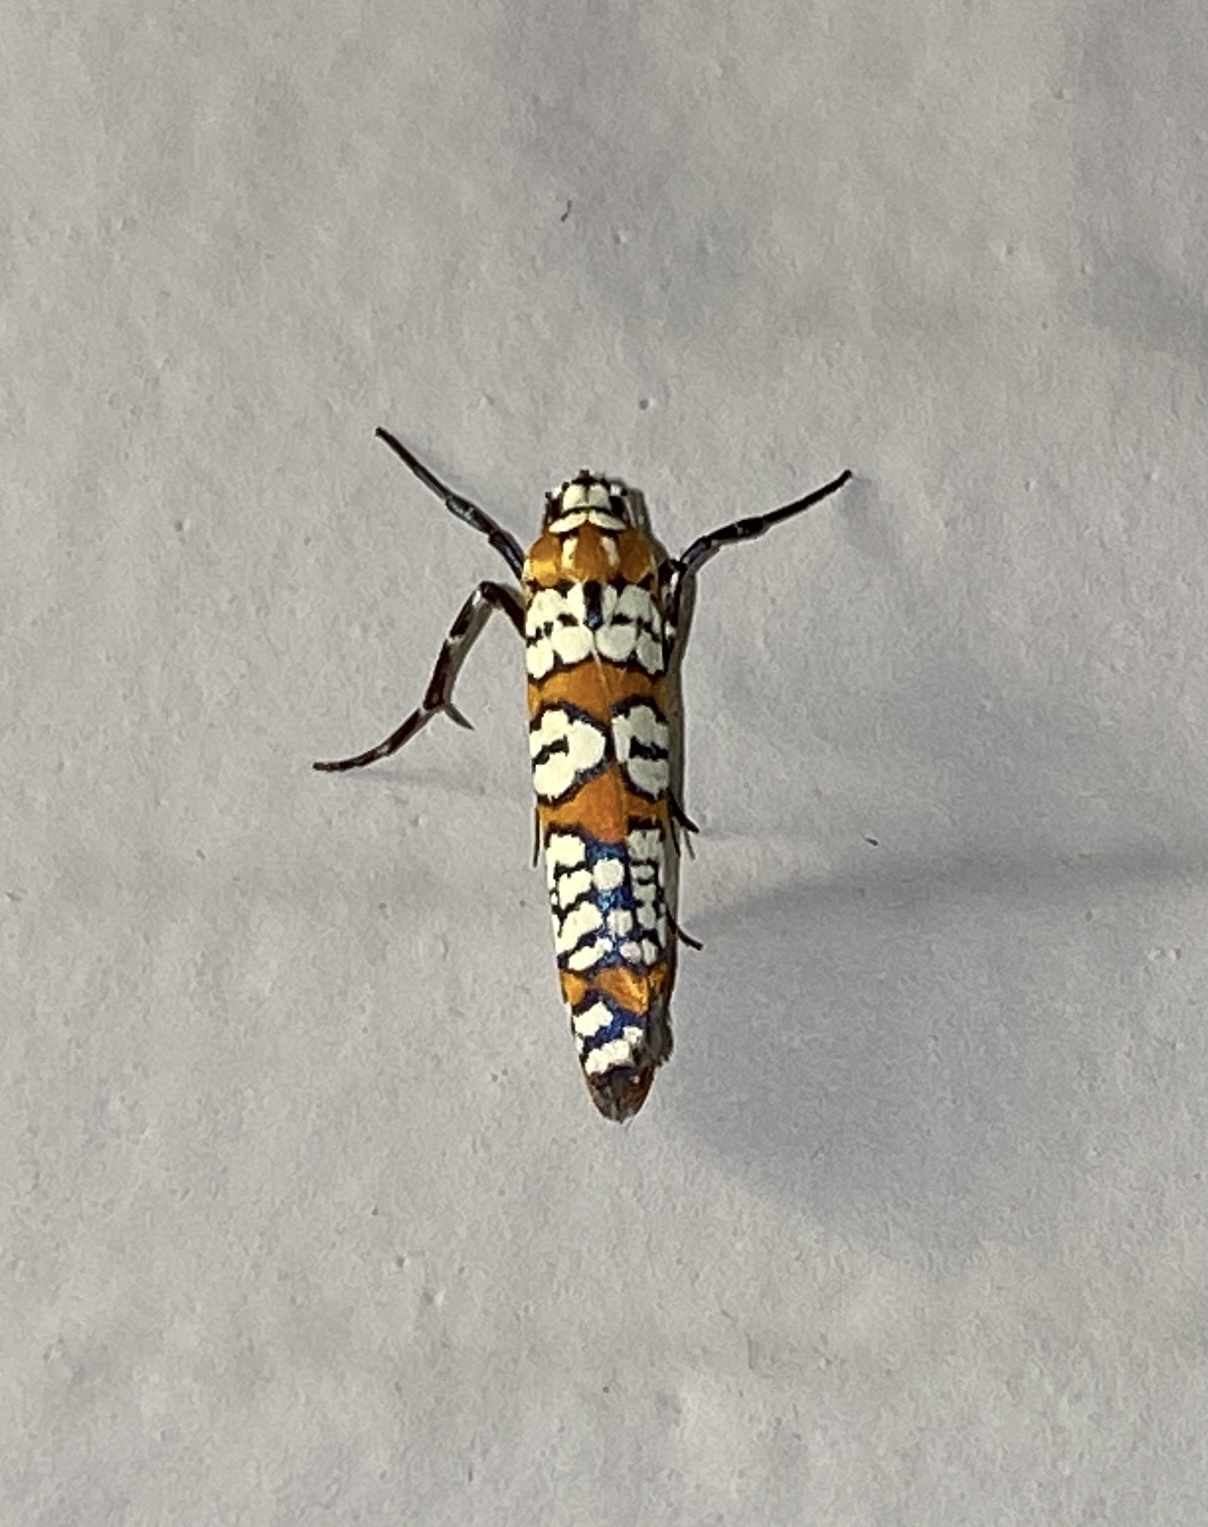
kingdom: Animalia
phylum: Arthropoda
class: Insecta
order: Lepidoptera
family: Attevidae
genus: Atteva
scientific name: Atteva punctella
